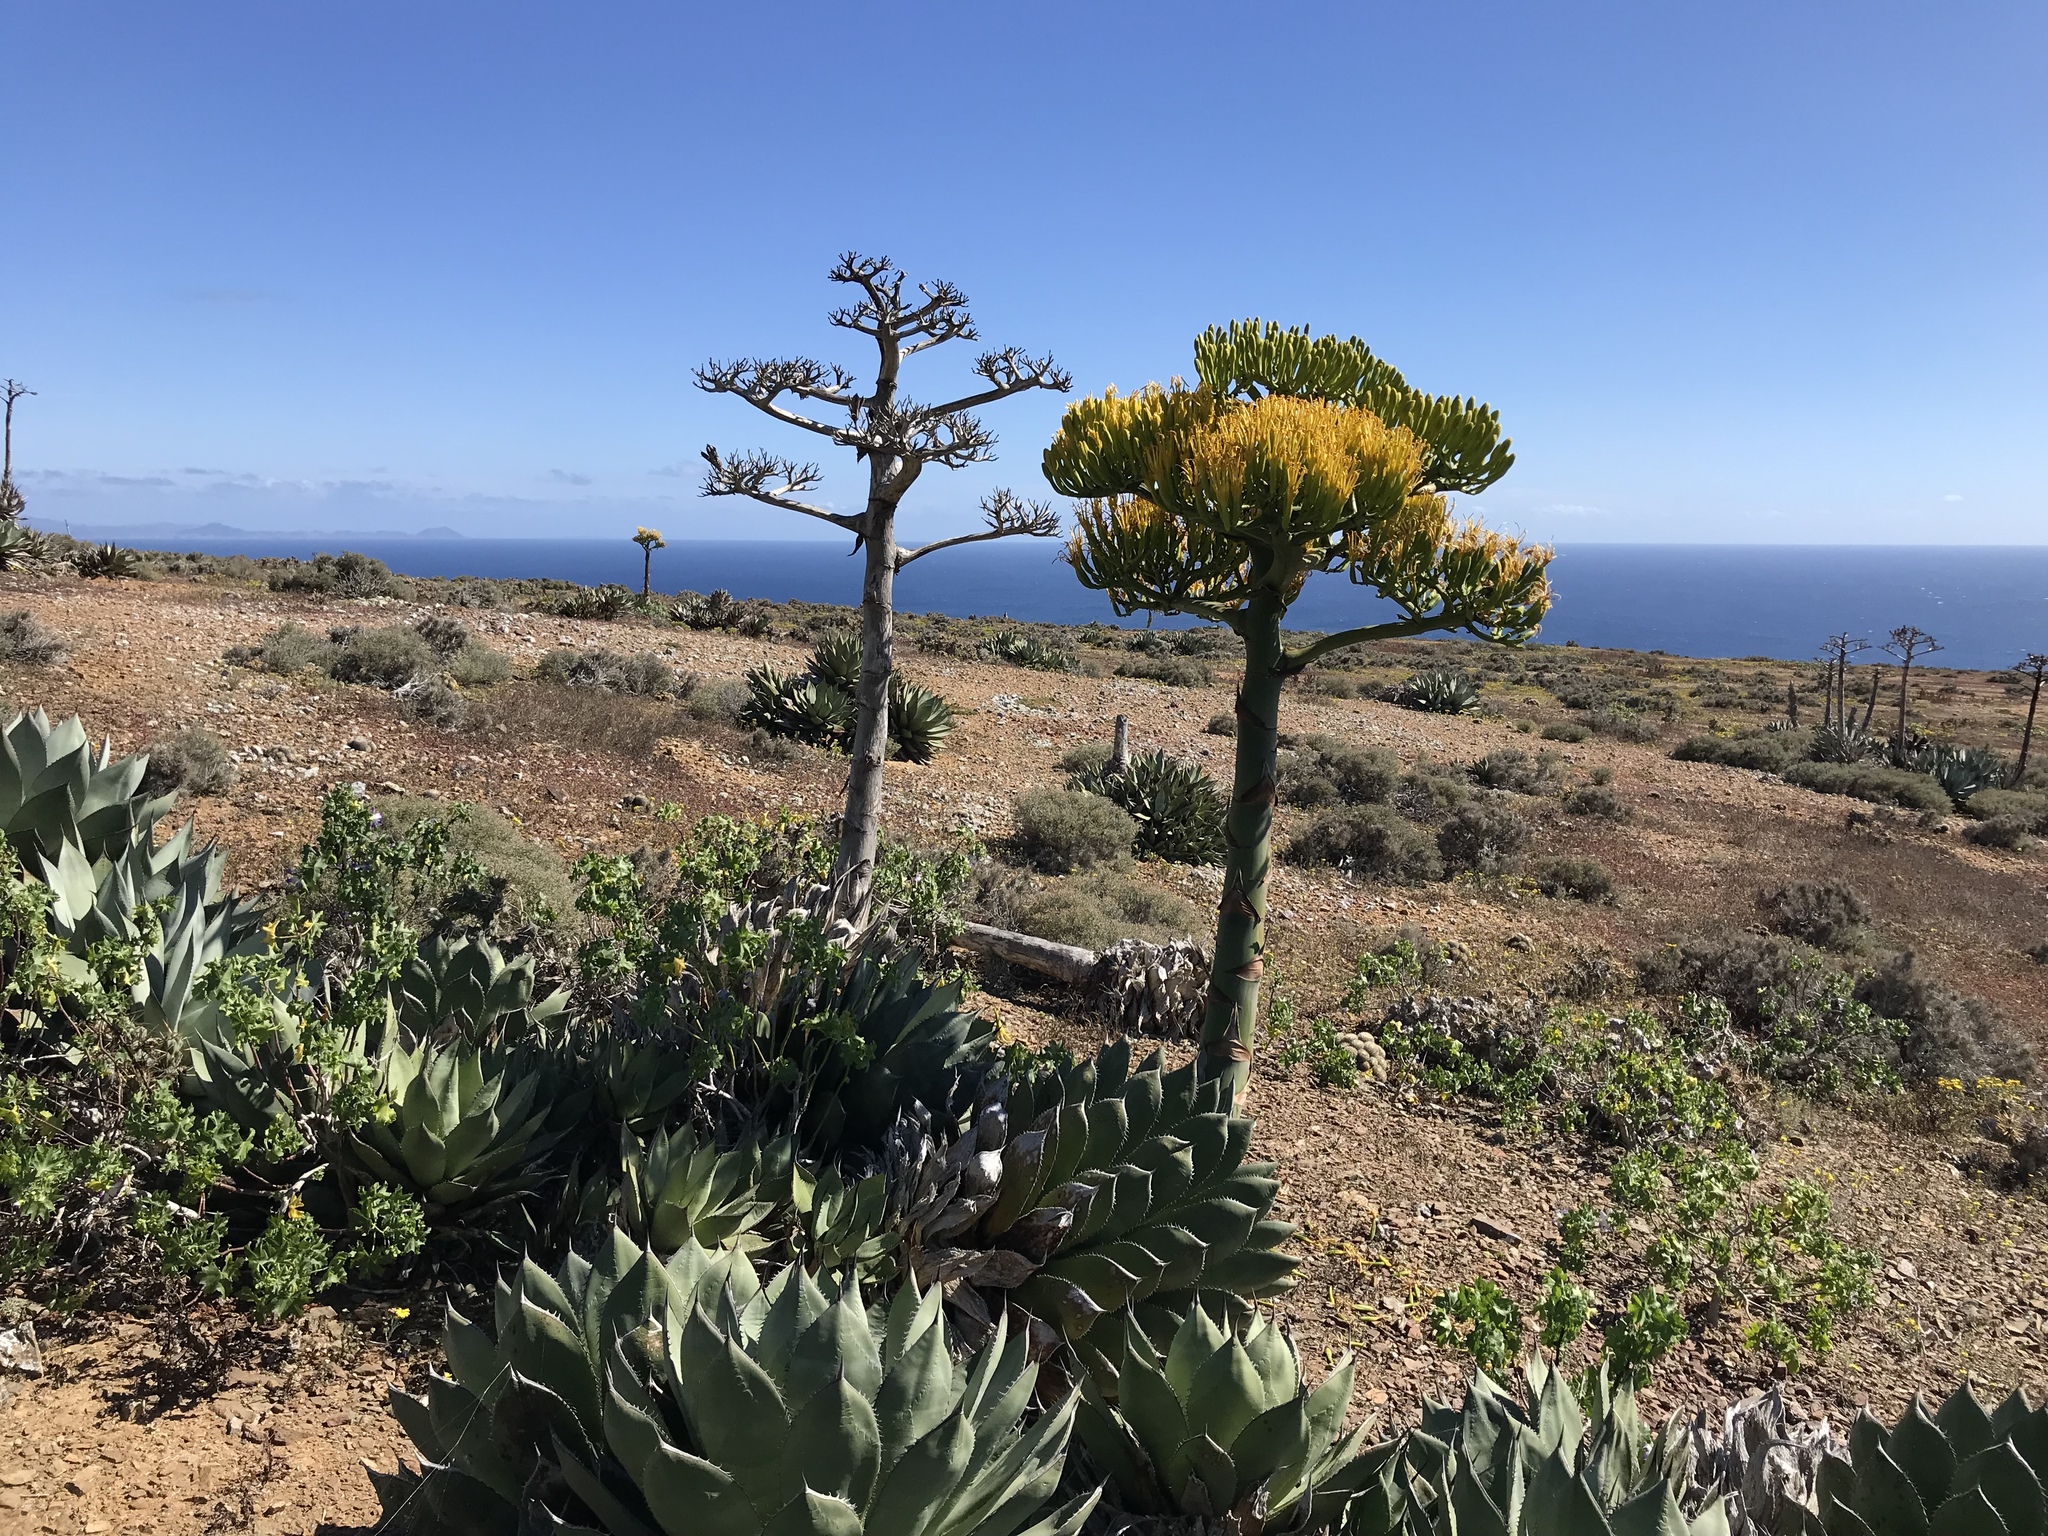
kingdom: Plantae
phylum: Tracheophyta
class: Liliopsida
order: Asparagales
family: Asparagaceae
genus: Agave
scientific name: Agave sebastiana
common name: Cedros agave
